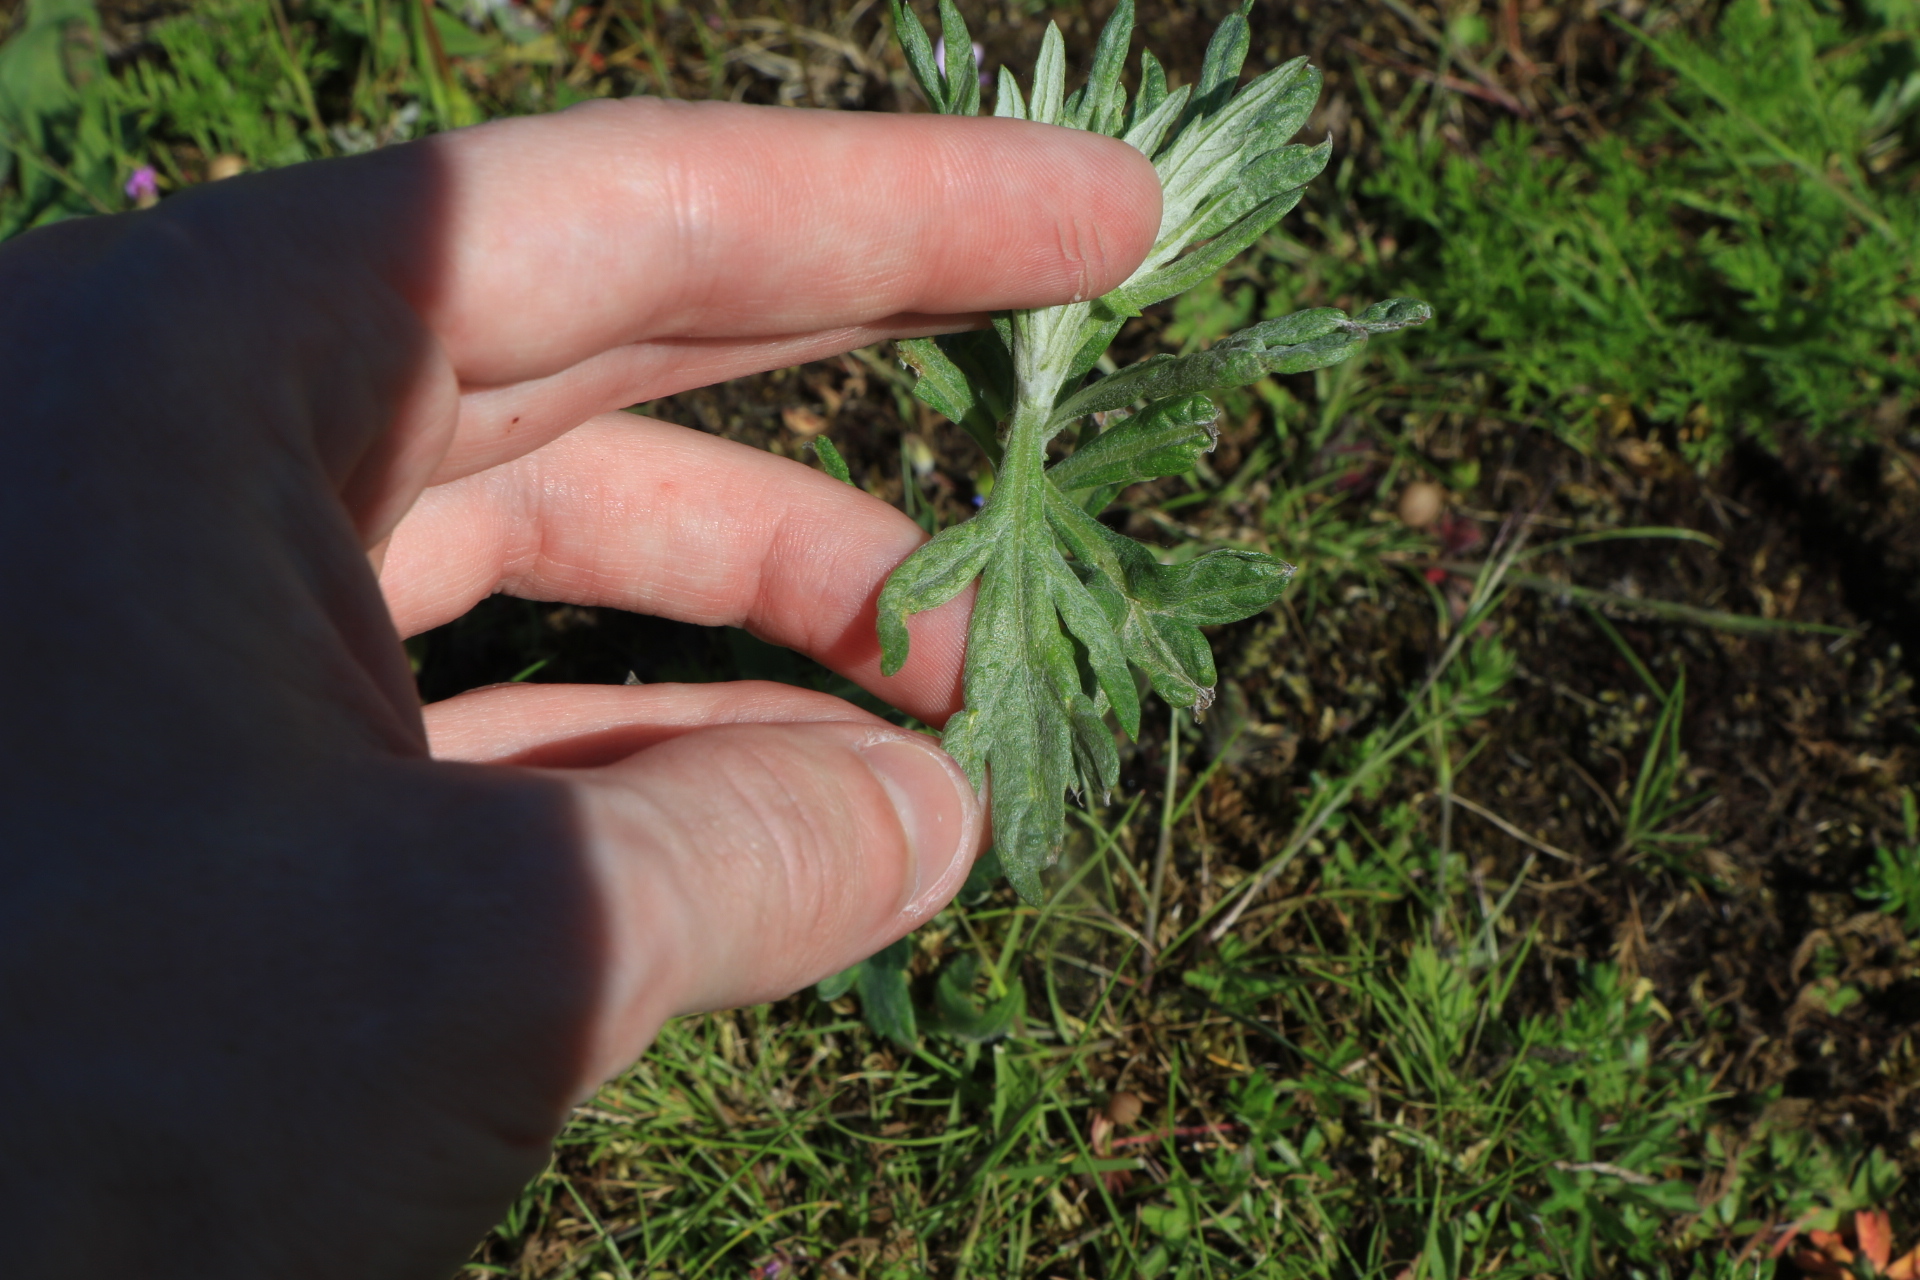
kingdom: Plantae
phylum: Tracheophyta
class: Magnoliopsida
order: Asterales
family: Asteraceae
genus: Artemisia
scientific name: Artemisia douglasiana
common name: Northwest mugwort
